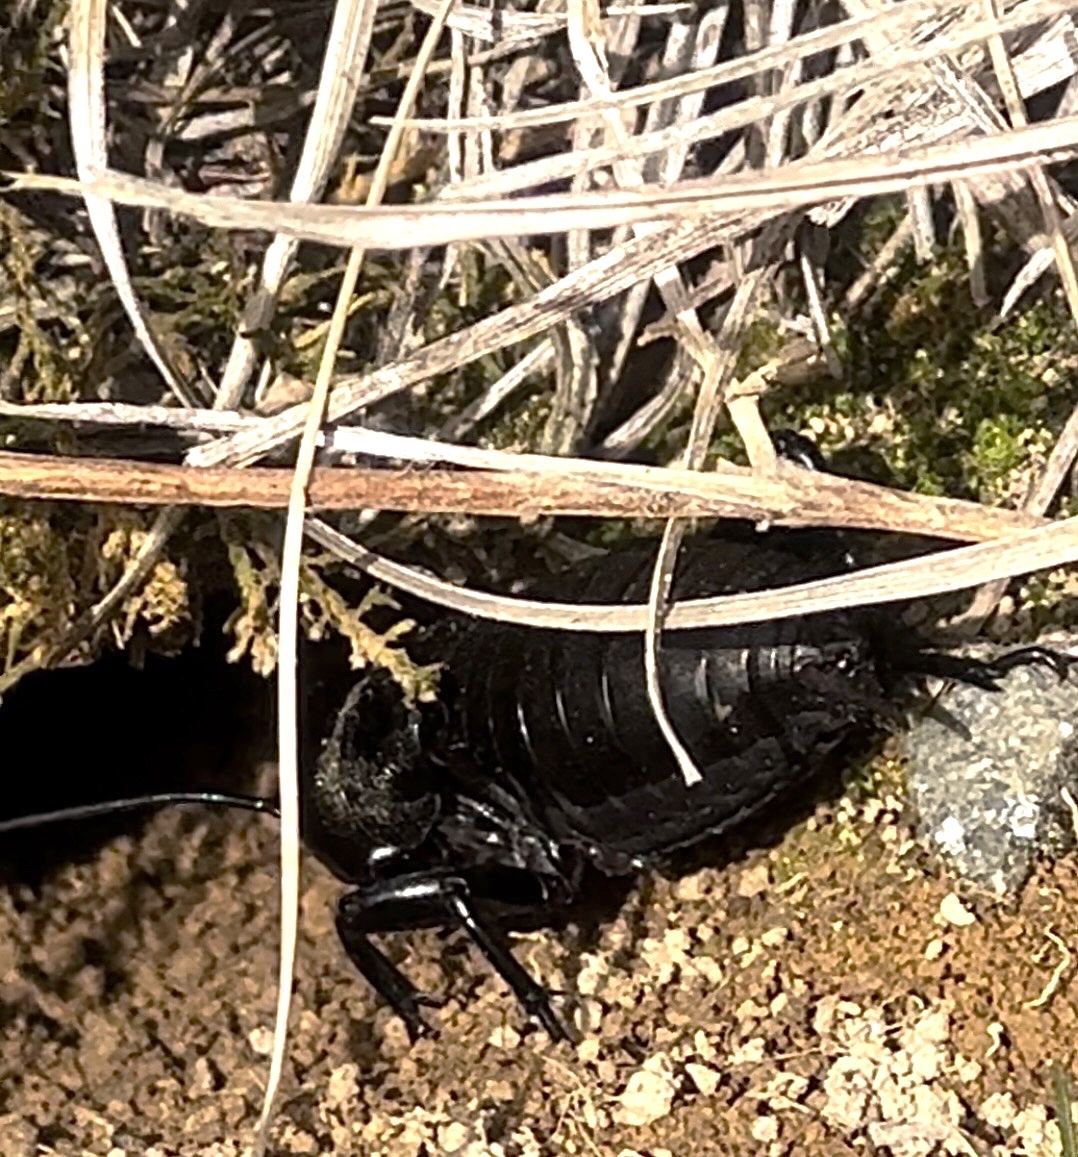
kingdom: Animalia
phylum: Arthropoda
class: Insecta
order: Orthoptera
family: Gryllidae
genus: Gryllus
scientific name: Gryllus campestris
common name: Field cricket
